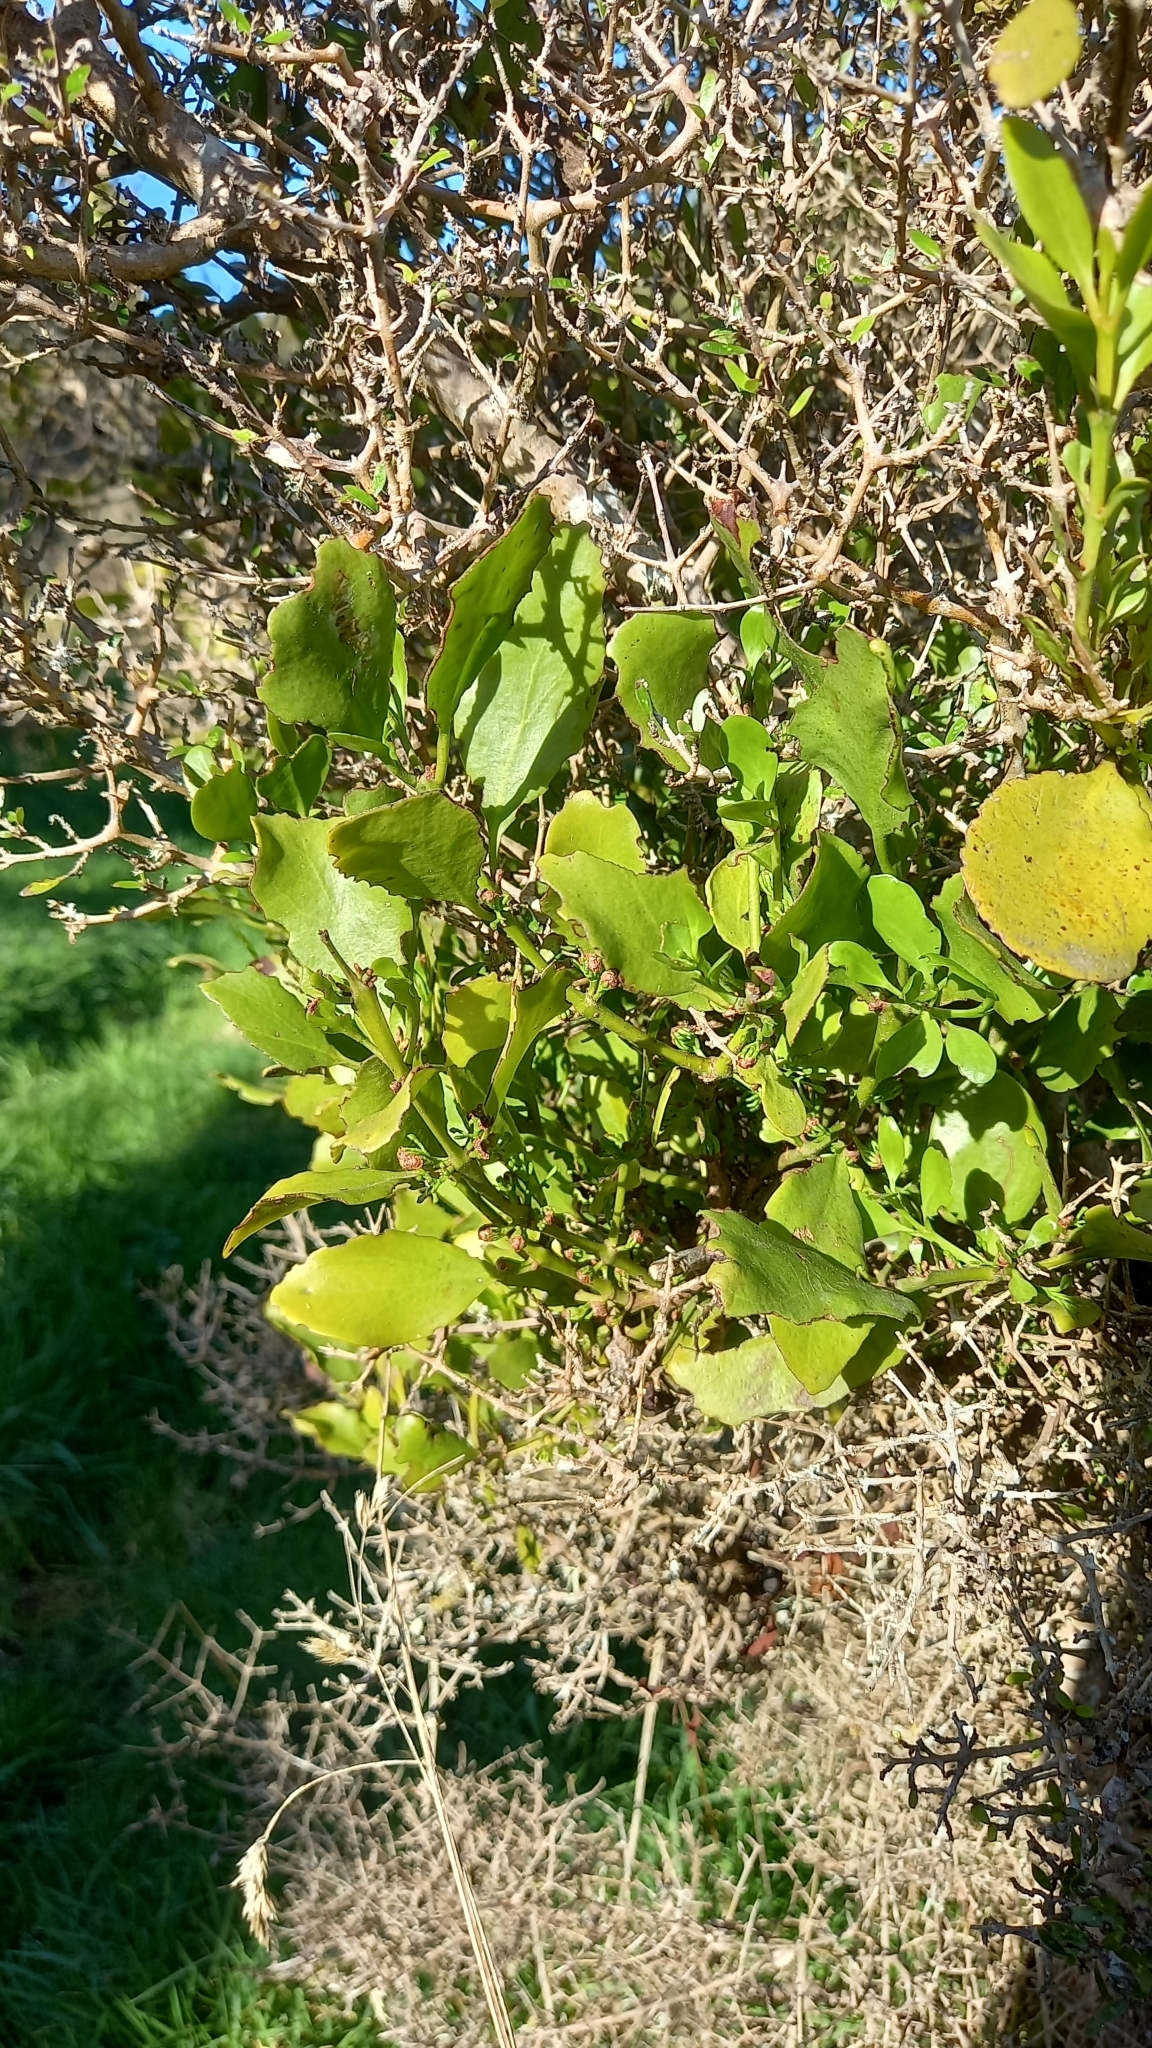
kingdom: Plantae
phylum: Tracheophyta
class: Magnoliopsida
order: Santalales
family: Loranthaceae
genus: Ileostylus
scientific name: Ileostylus micranthus
